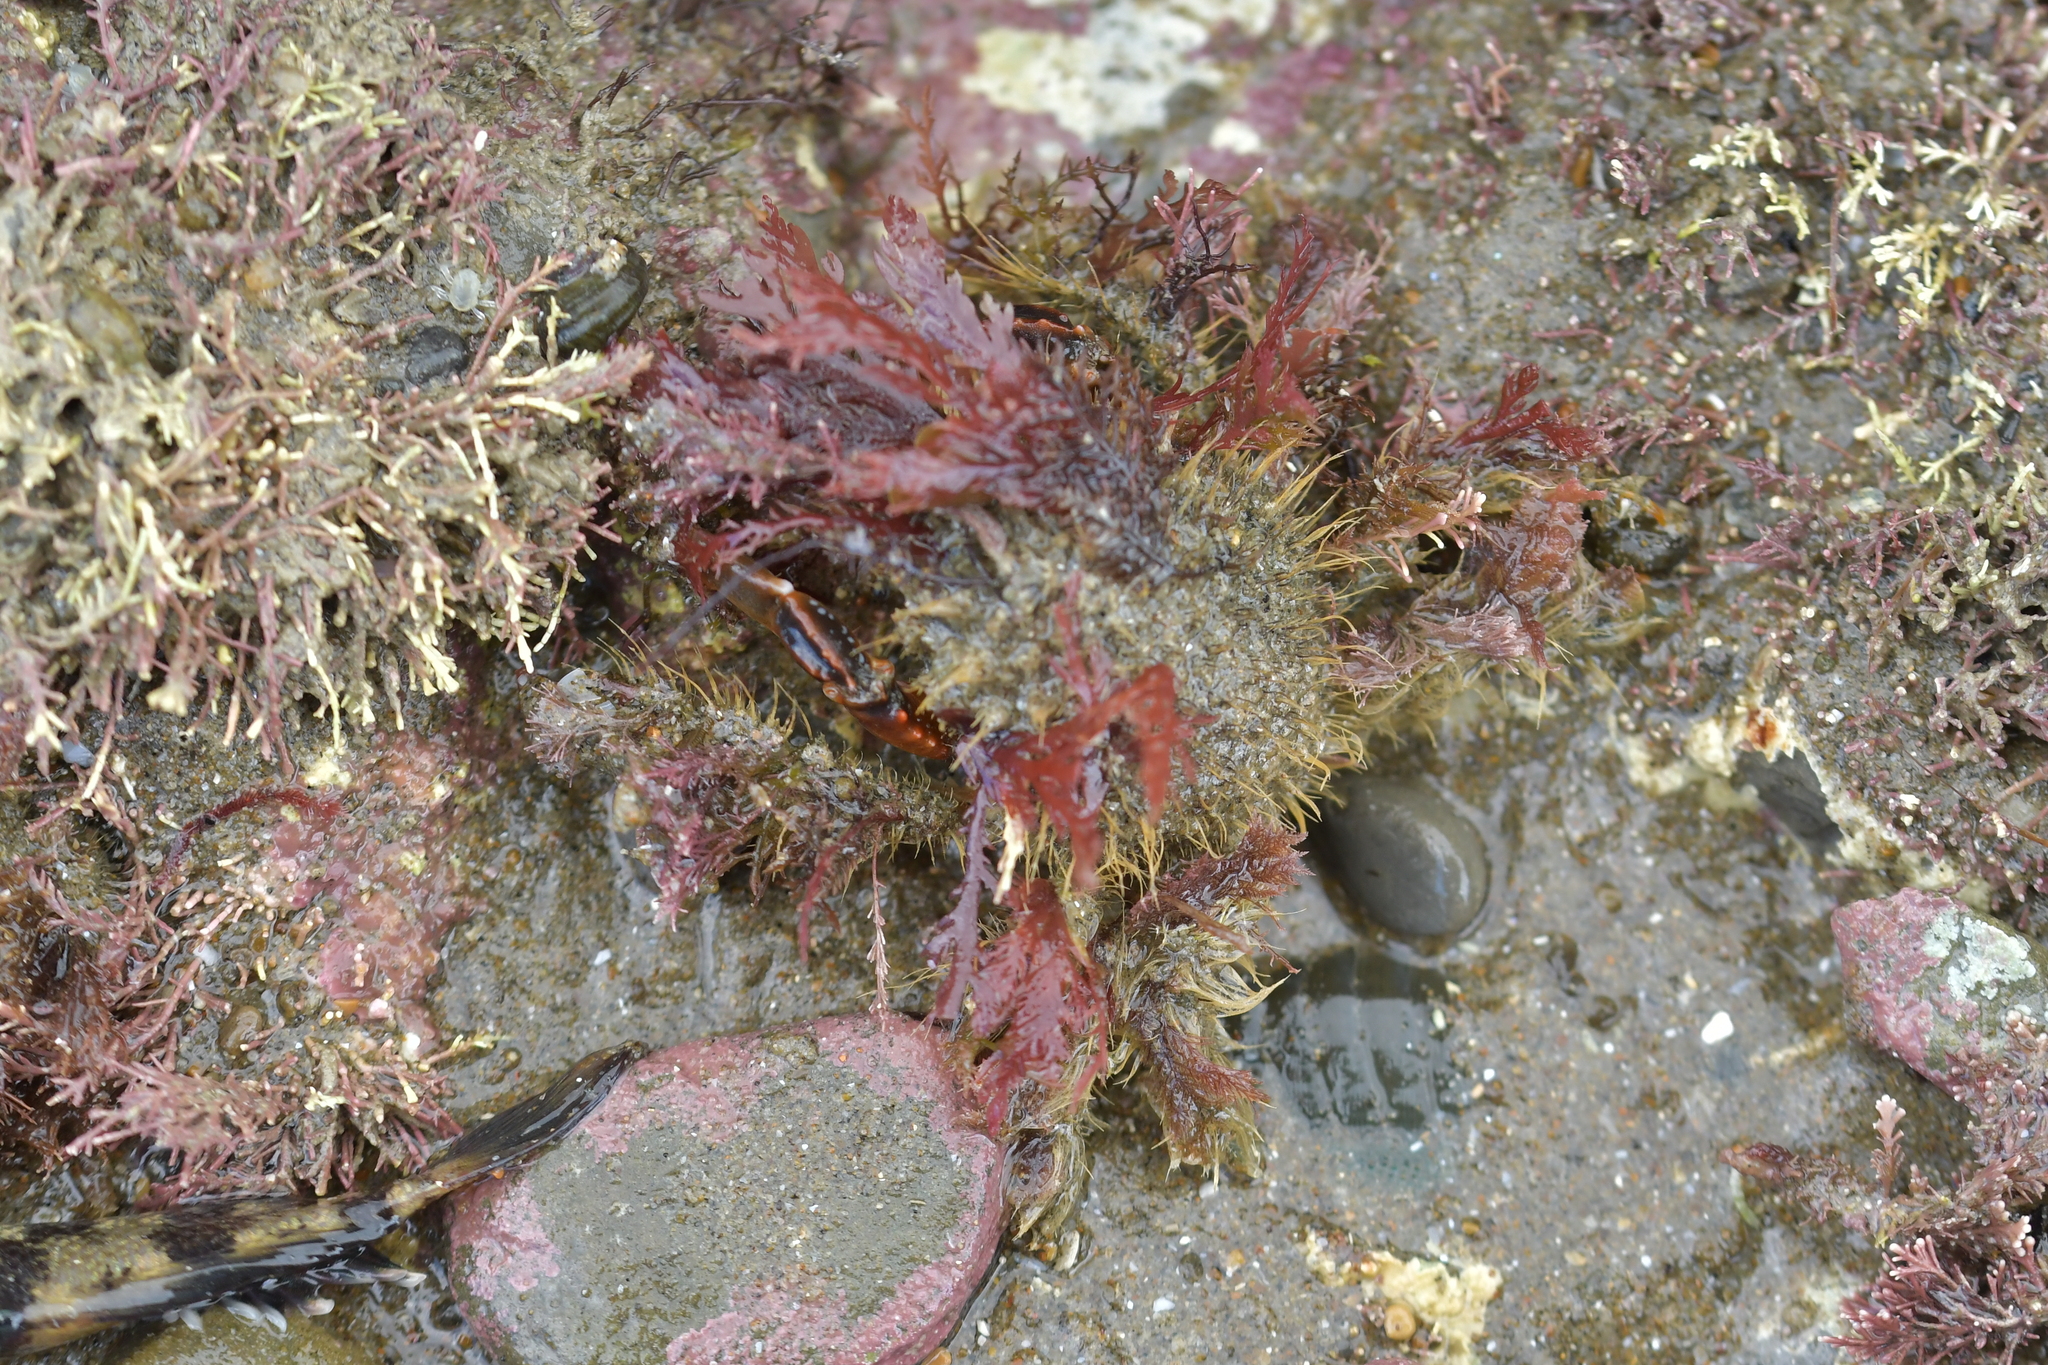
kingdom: Animalia
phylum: Arthropoda
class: Malacostraca
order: Decapoda
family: Majidae
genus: Notomithrax
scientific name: Notomithrax ursus
